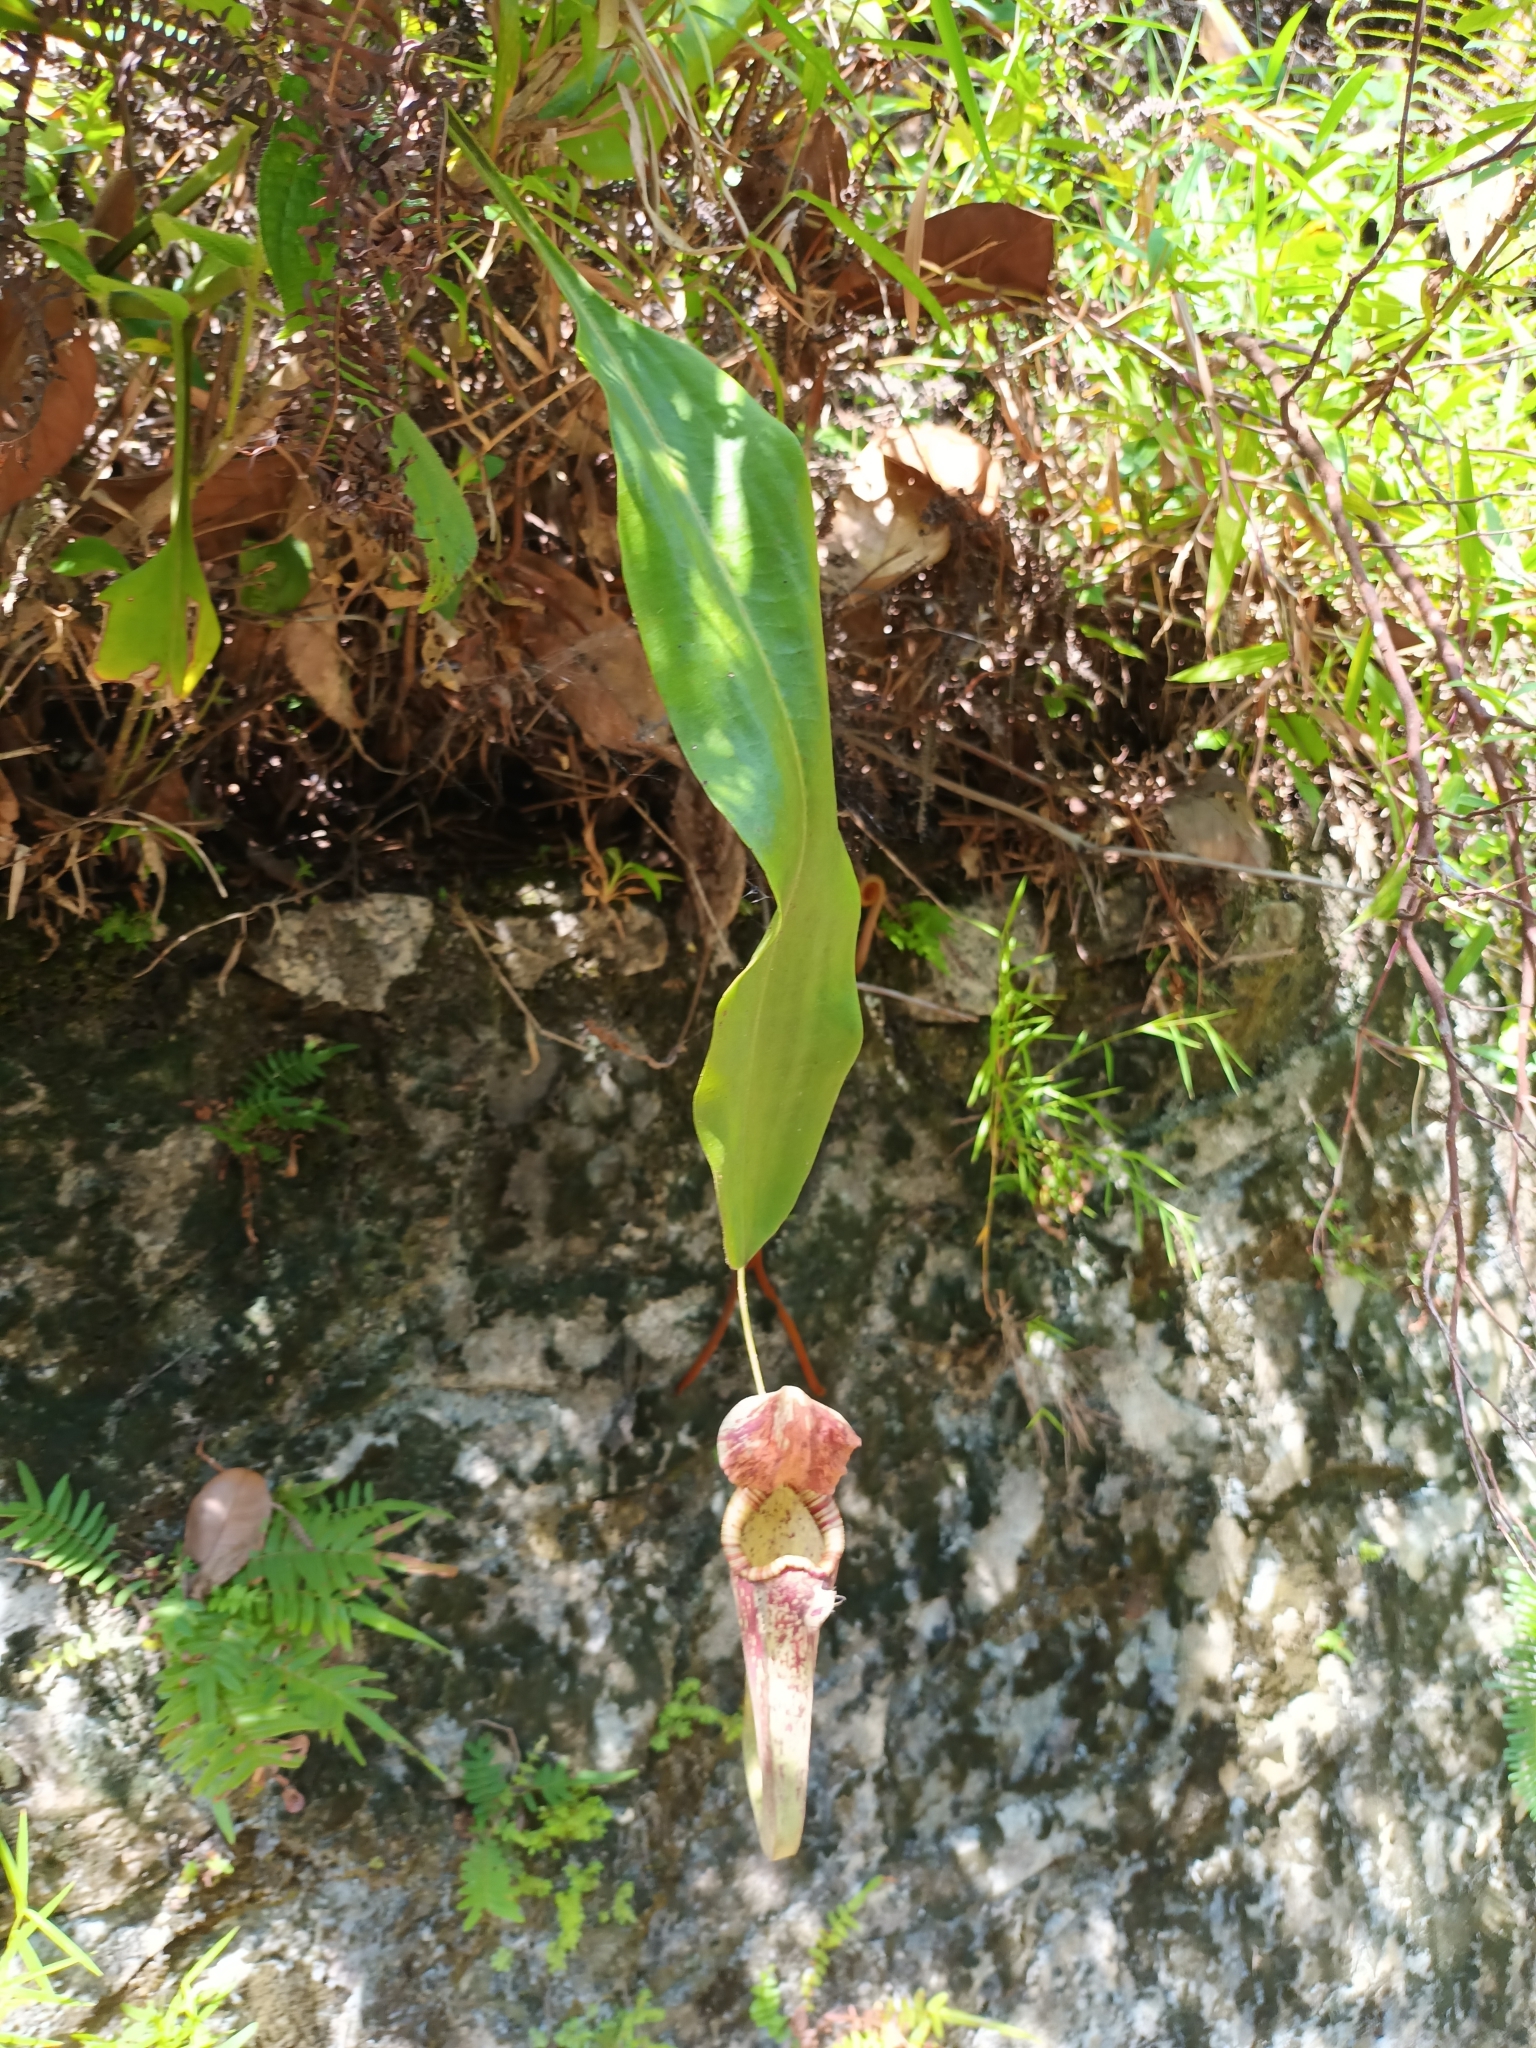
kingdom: Plantae
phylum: Tracheophyta
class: Magnoliopsida
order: Caryophyllales
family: Nepenthaceae
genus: Nepenthes
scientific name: Nepenthes rafflesiana
